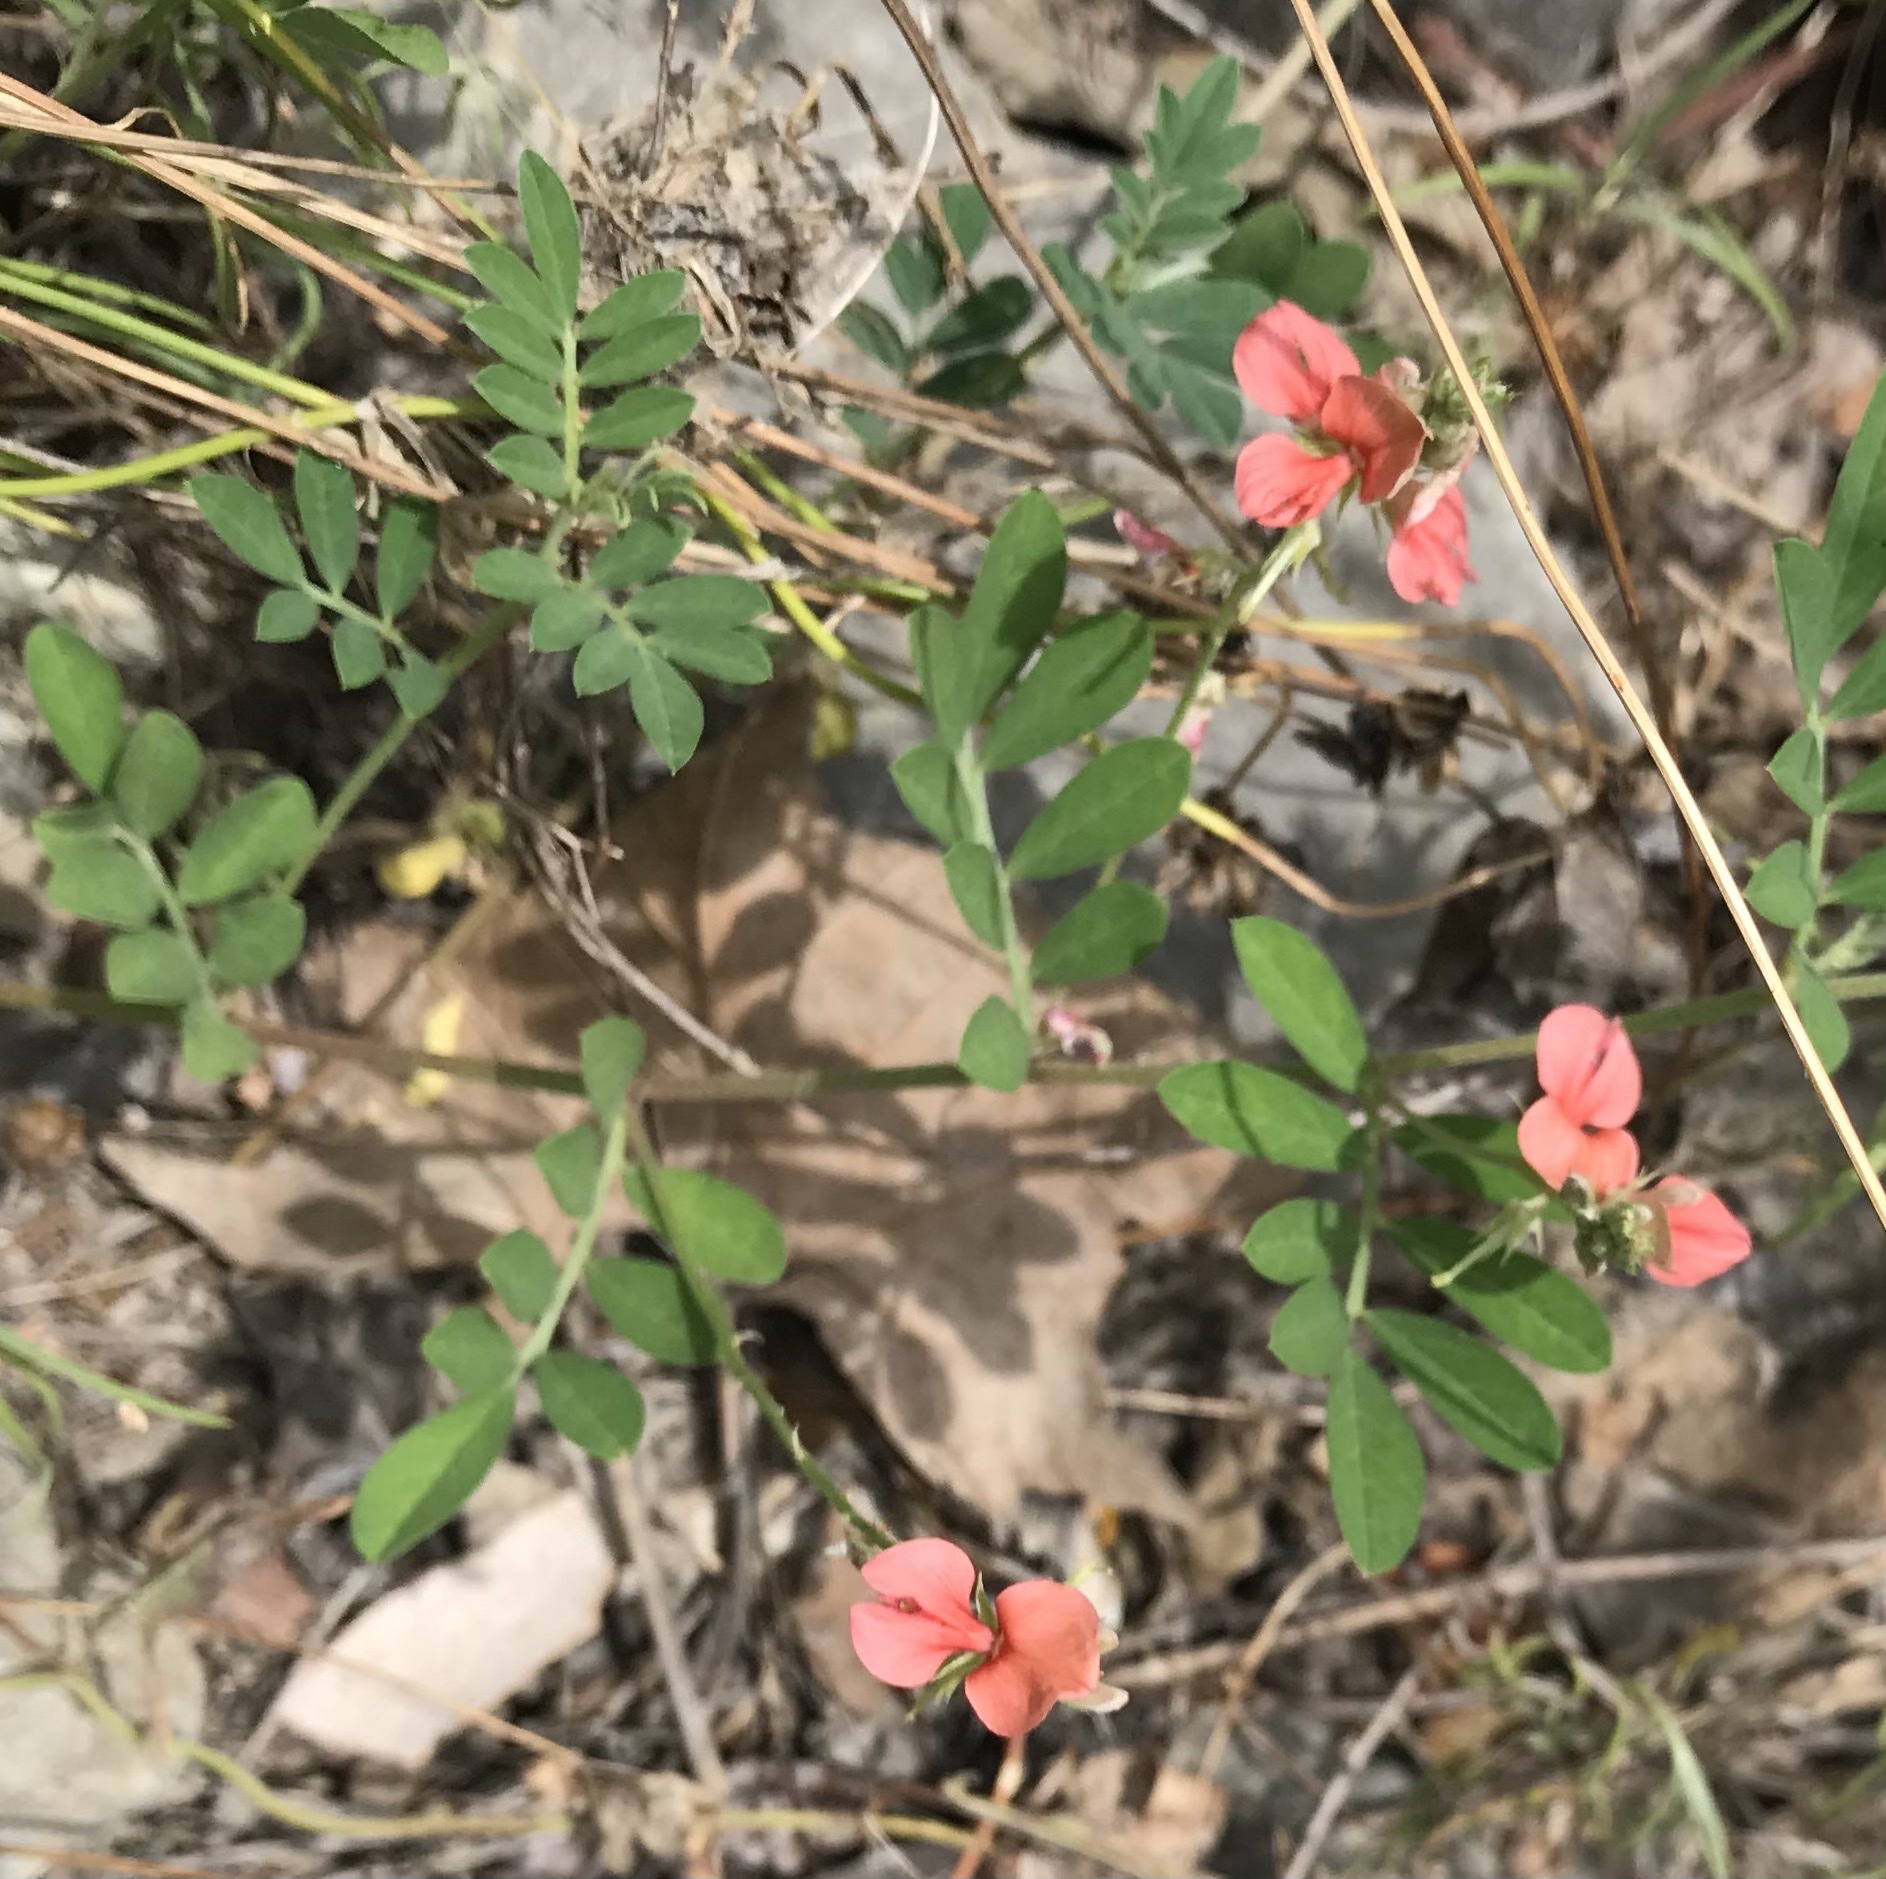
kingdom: Plantae
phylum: Tracheophyta
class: Magnoliopsida
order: Fabales
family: Fabaceae
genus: Indigofera
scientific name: Indigofera miniata
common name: Coast indigo
